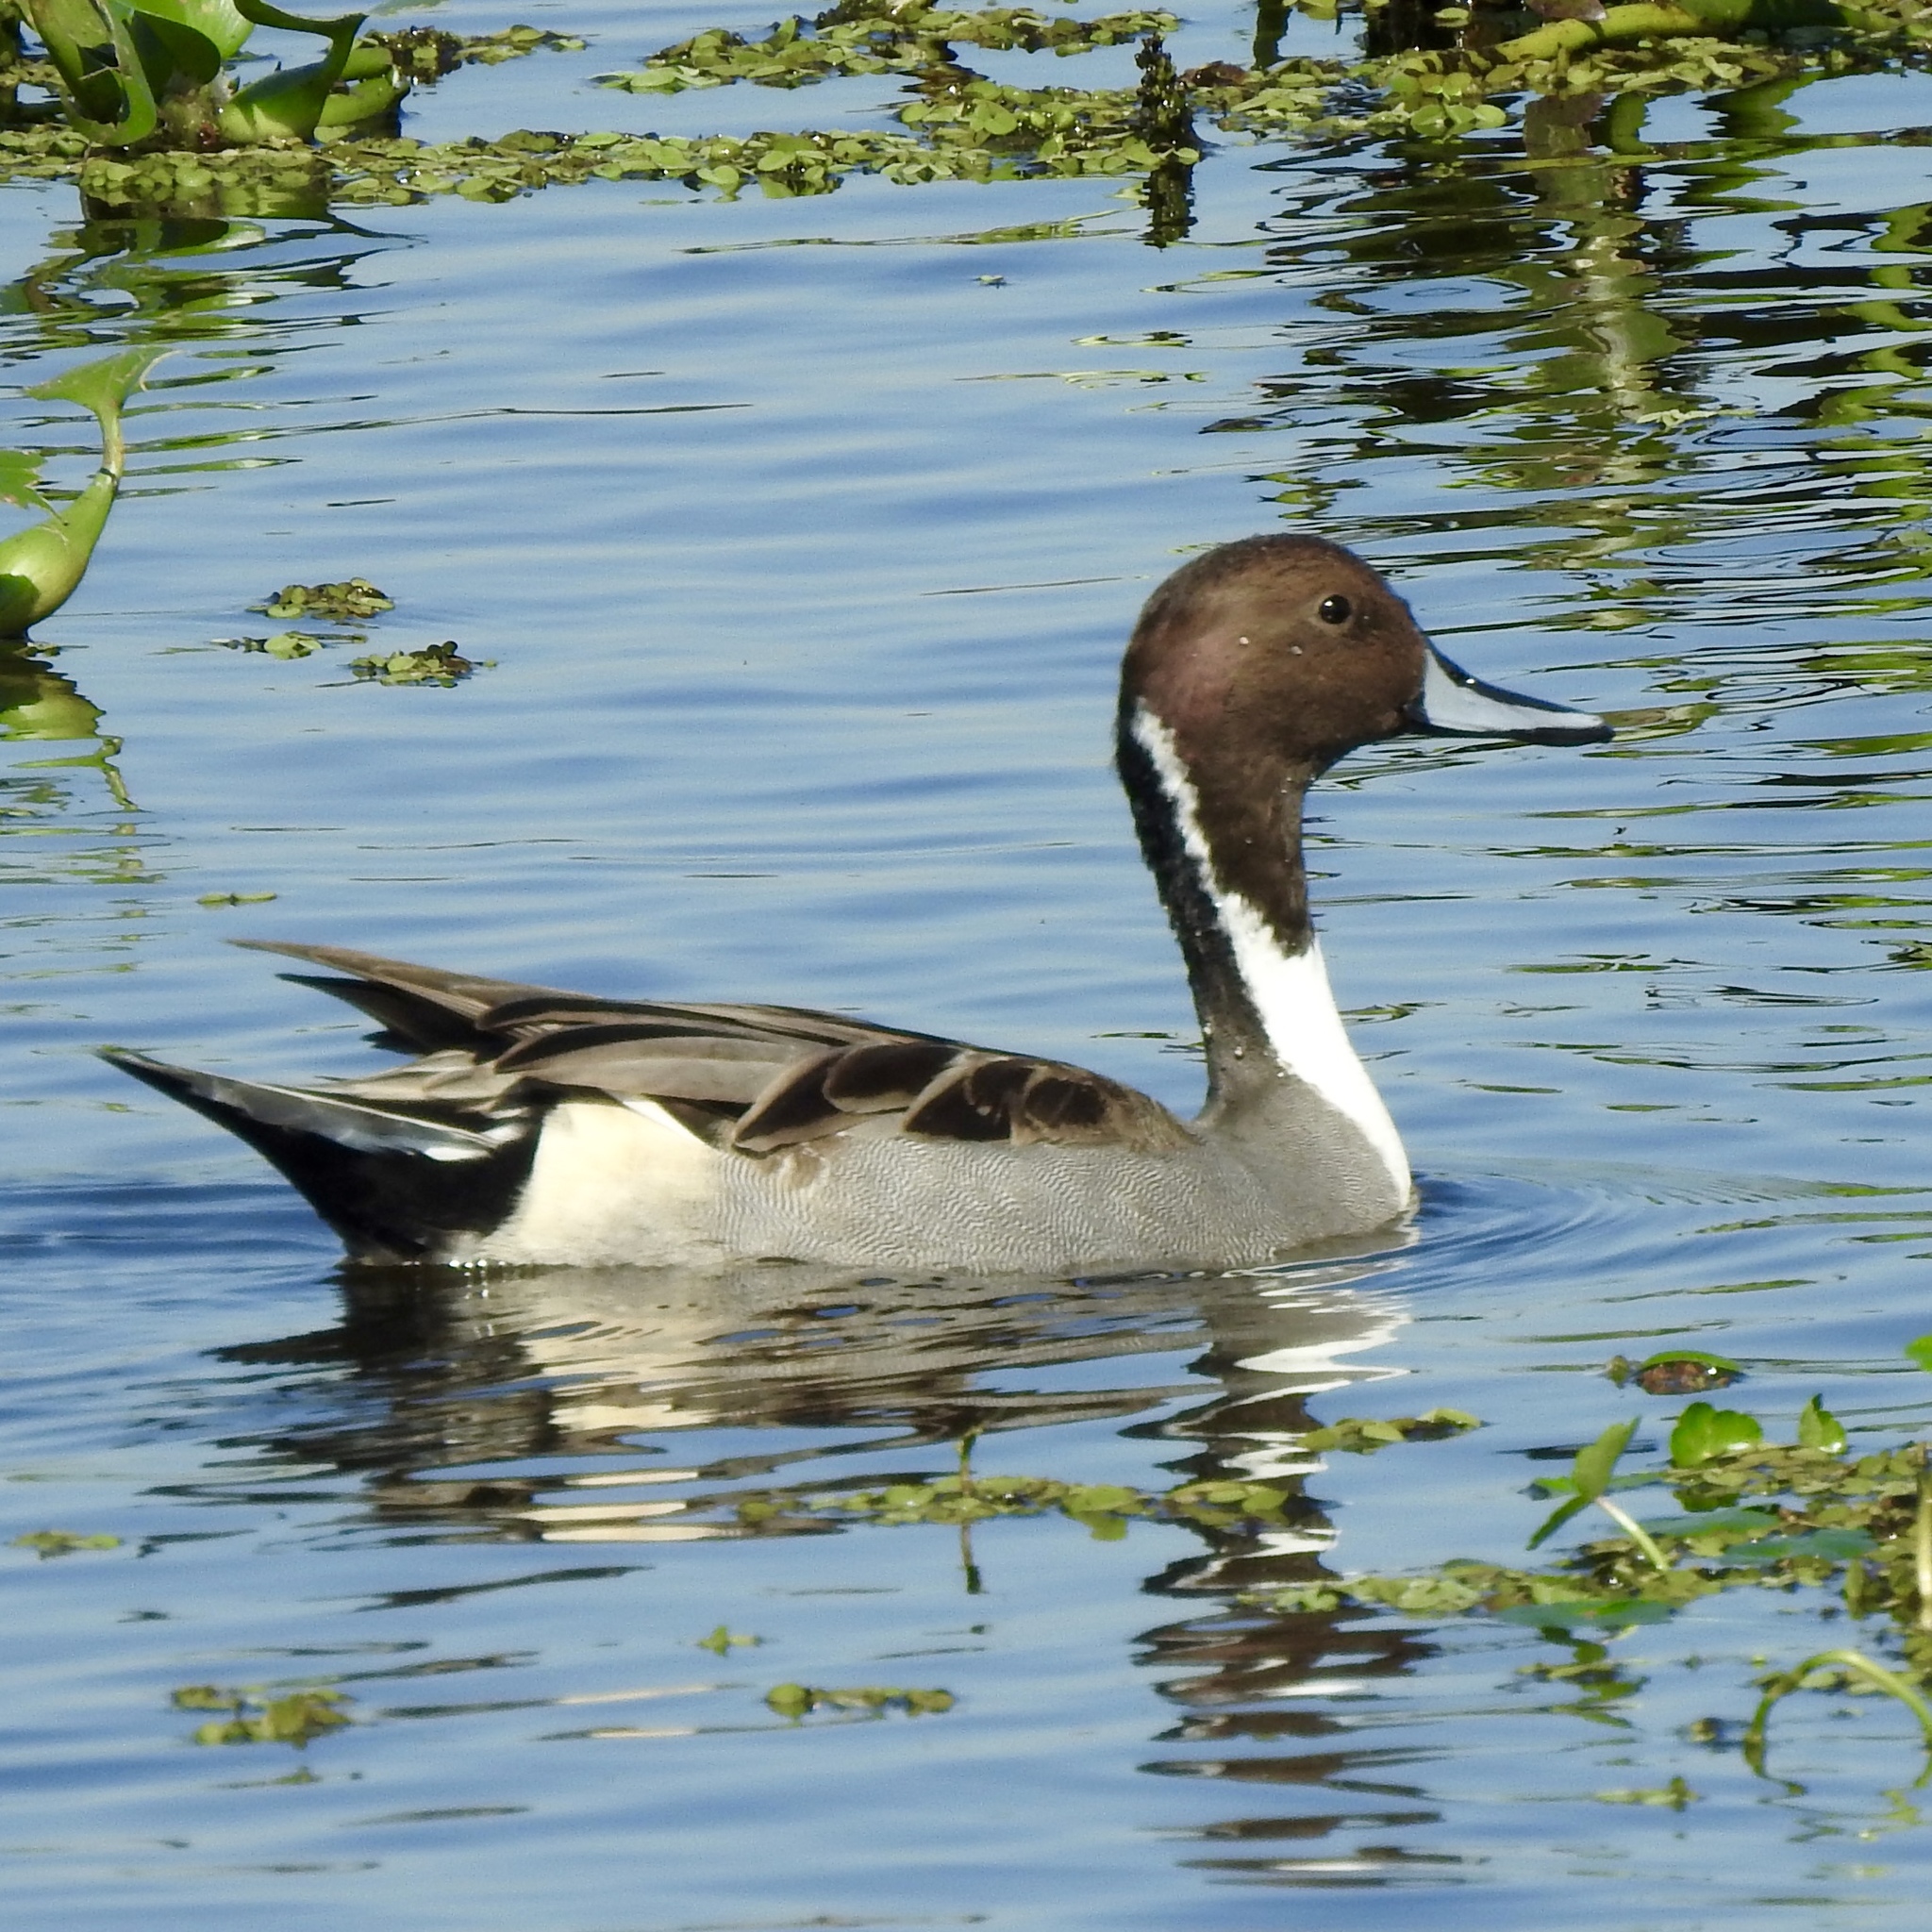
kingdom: Animalia
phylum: Chordata
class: Aves
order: Anseriformes
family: Anatidae
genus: Anas
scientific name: Anas acuta
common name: Northern pintail
